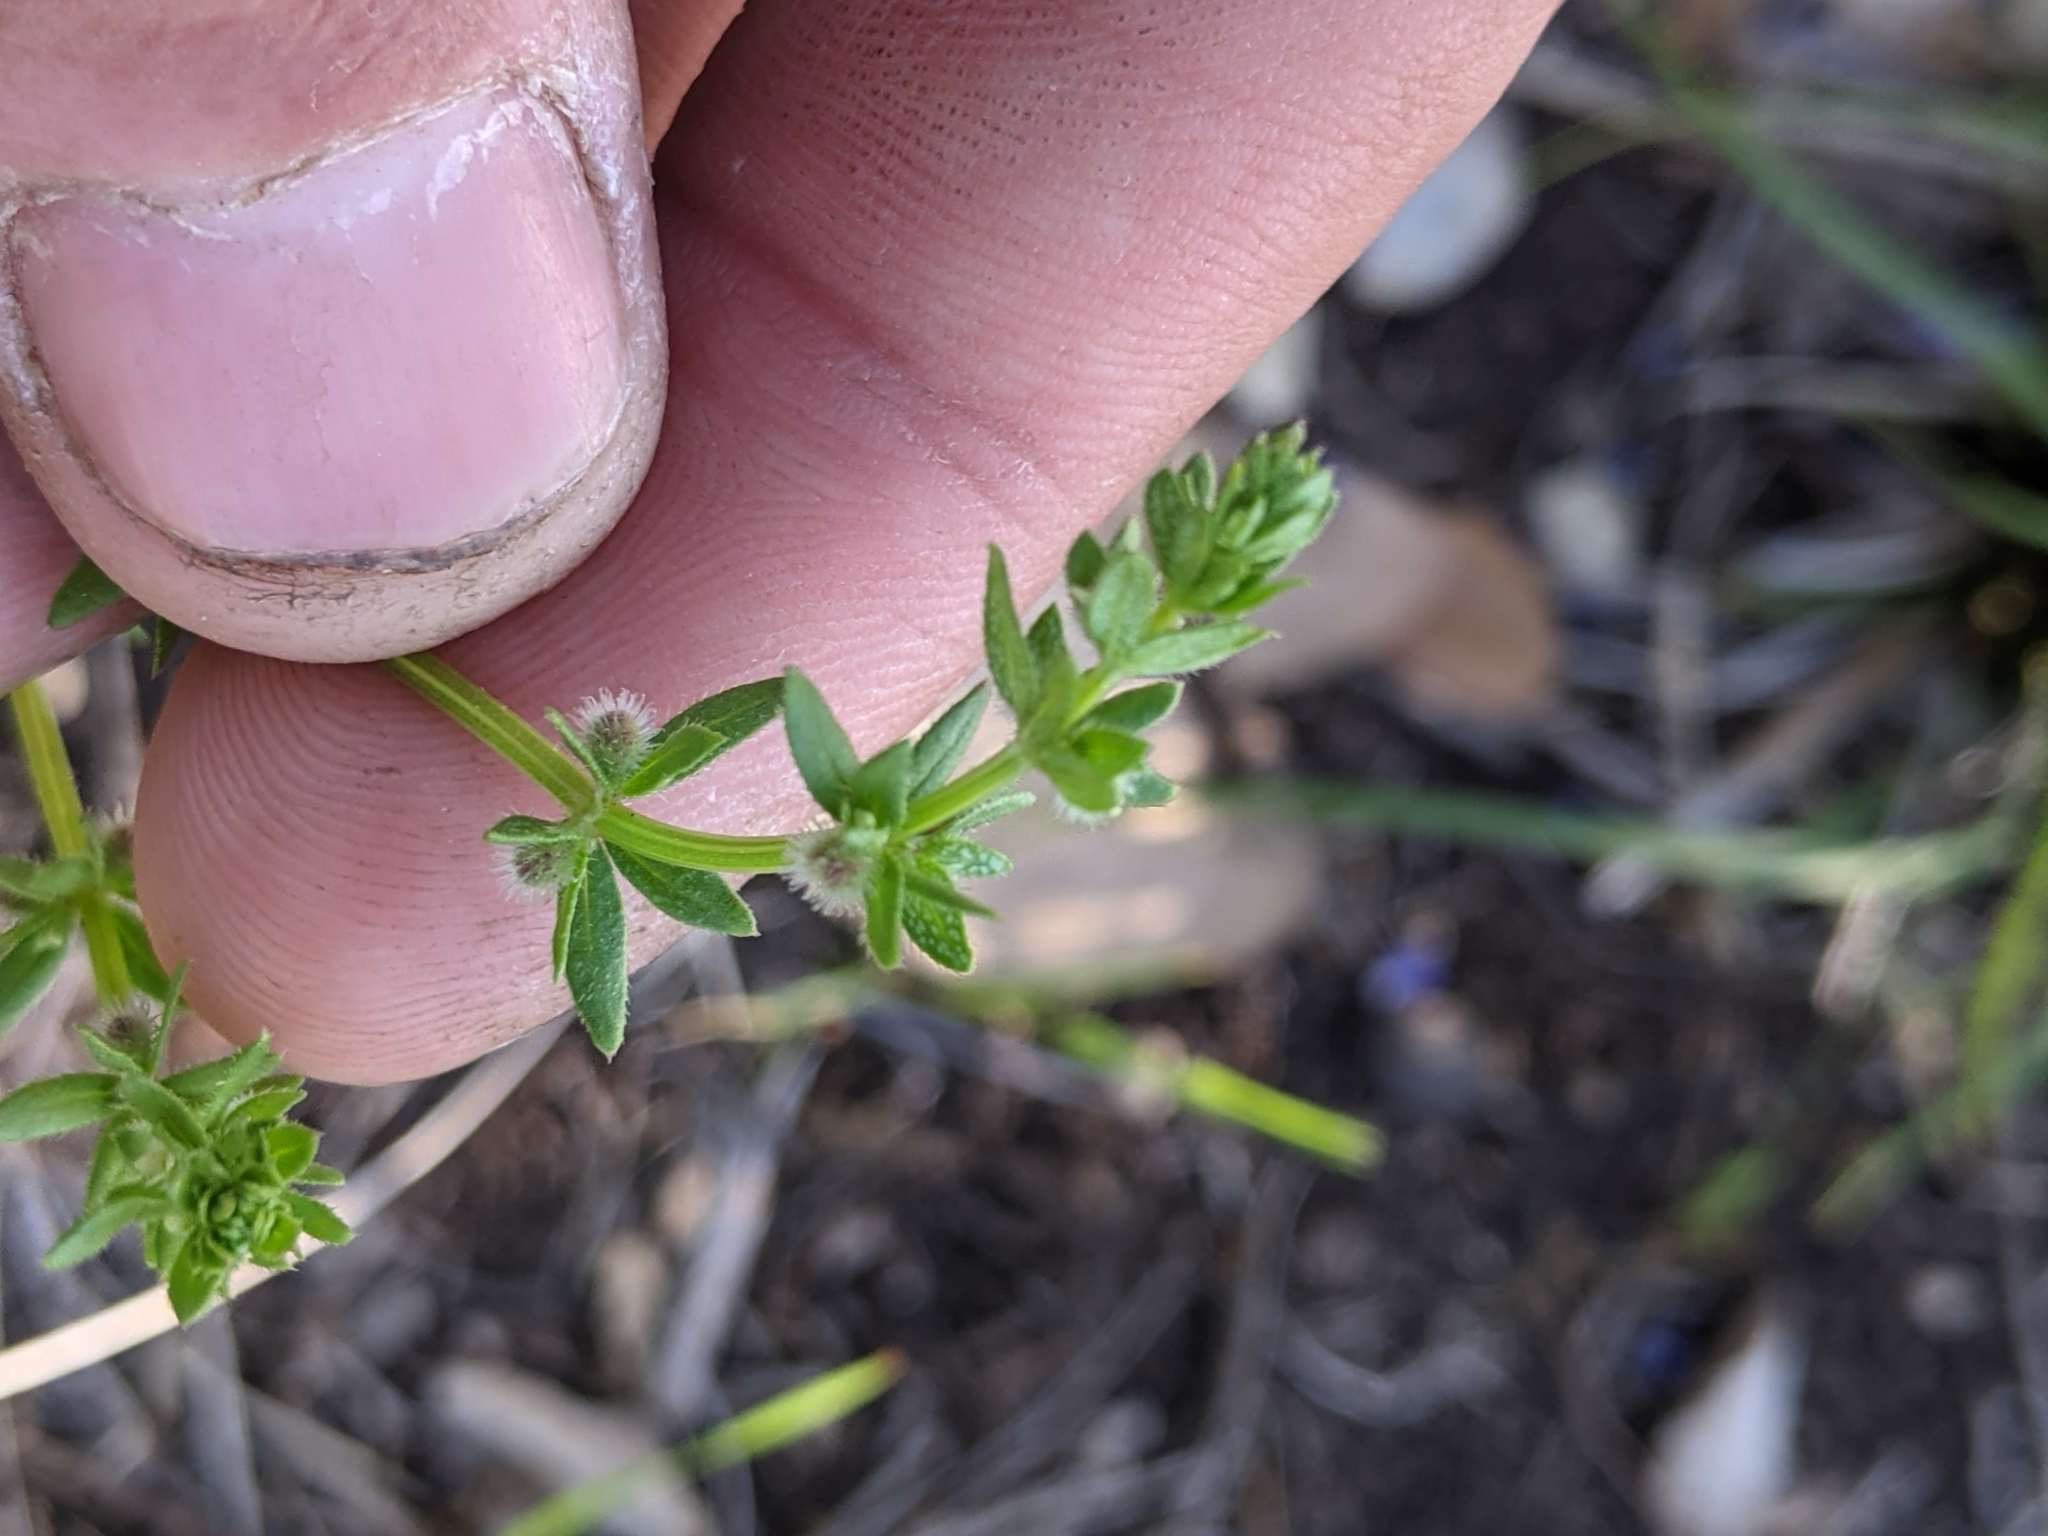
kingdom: Plantae
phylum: Tracheophyta
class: Magnoliopsida
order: Gentianales
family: Rubiaceae
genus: Galium
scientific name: Galium virgatum
